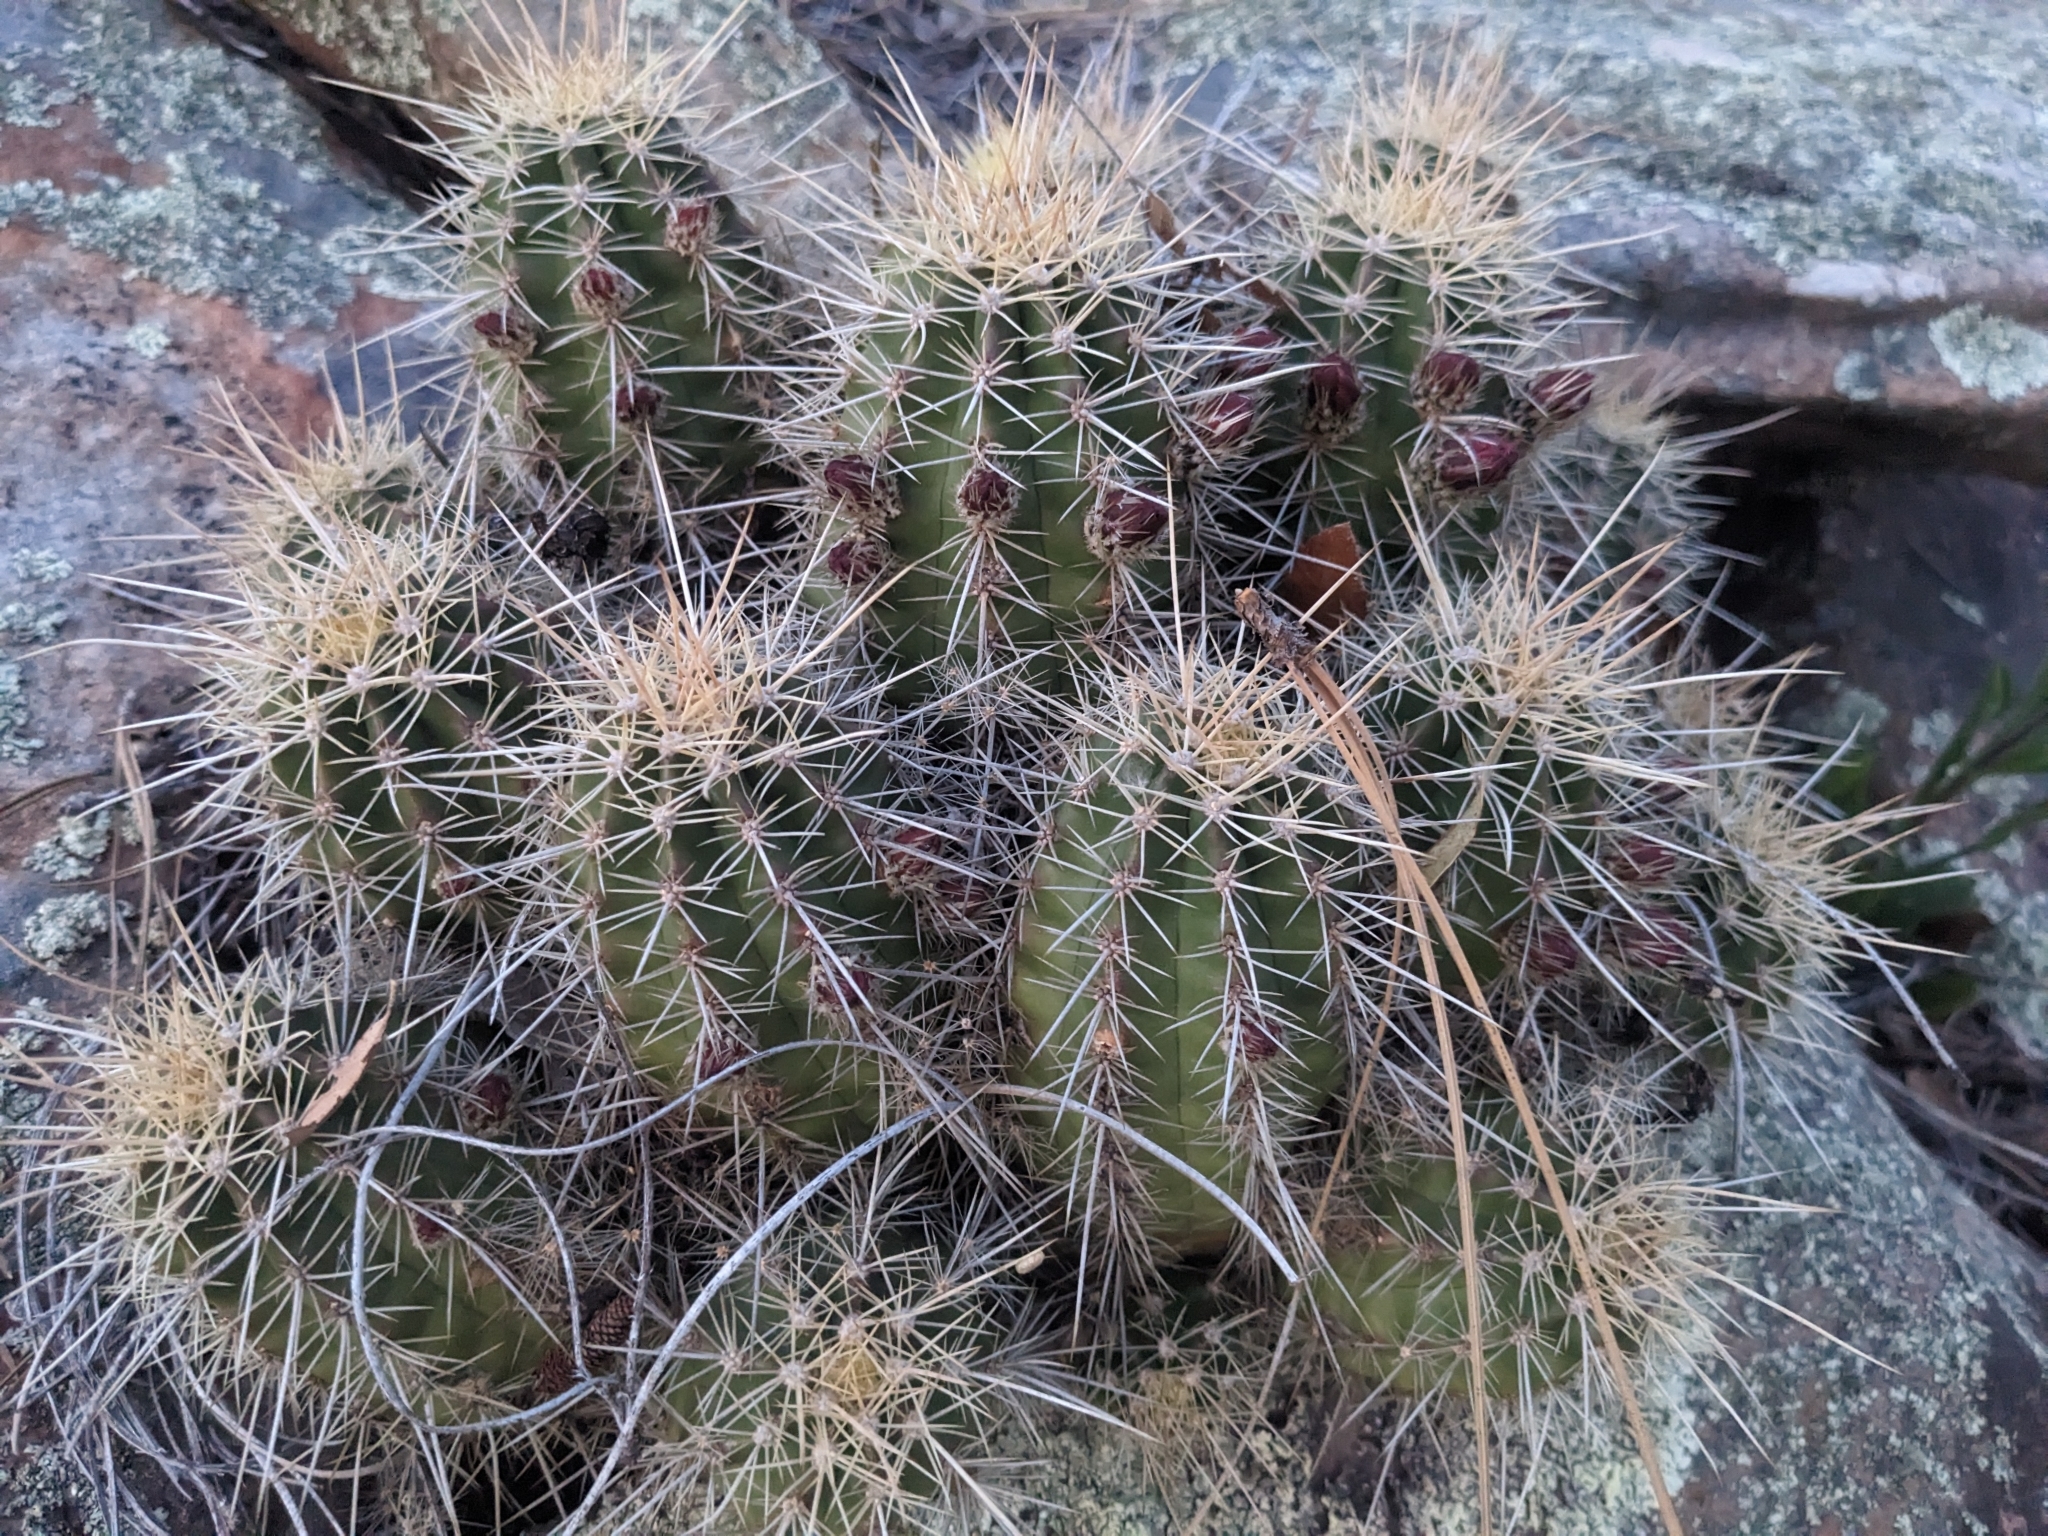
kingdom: Plantae
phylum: Tracheophyta
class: Magnoliopsida
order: Caryophyllales
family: Cactaceae
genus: Echinocereus
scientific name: Echinocereus bakeri
